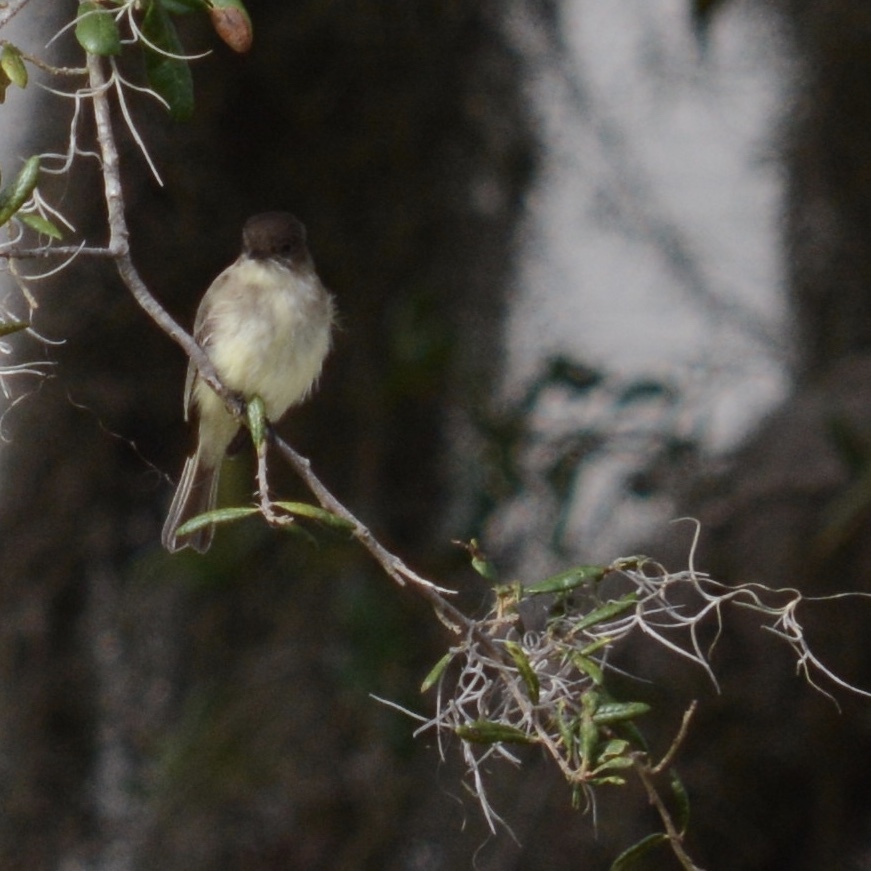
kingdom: Animalia
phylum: Chordata
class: Aves
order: Passeriformes
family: Tyrannidae
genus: Sayornis
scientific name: Sayornis phoebe
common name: Eastern phoebe
